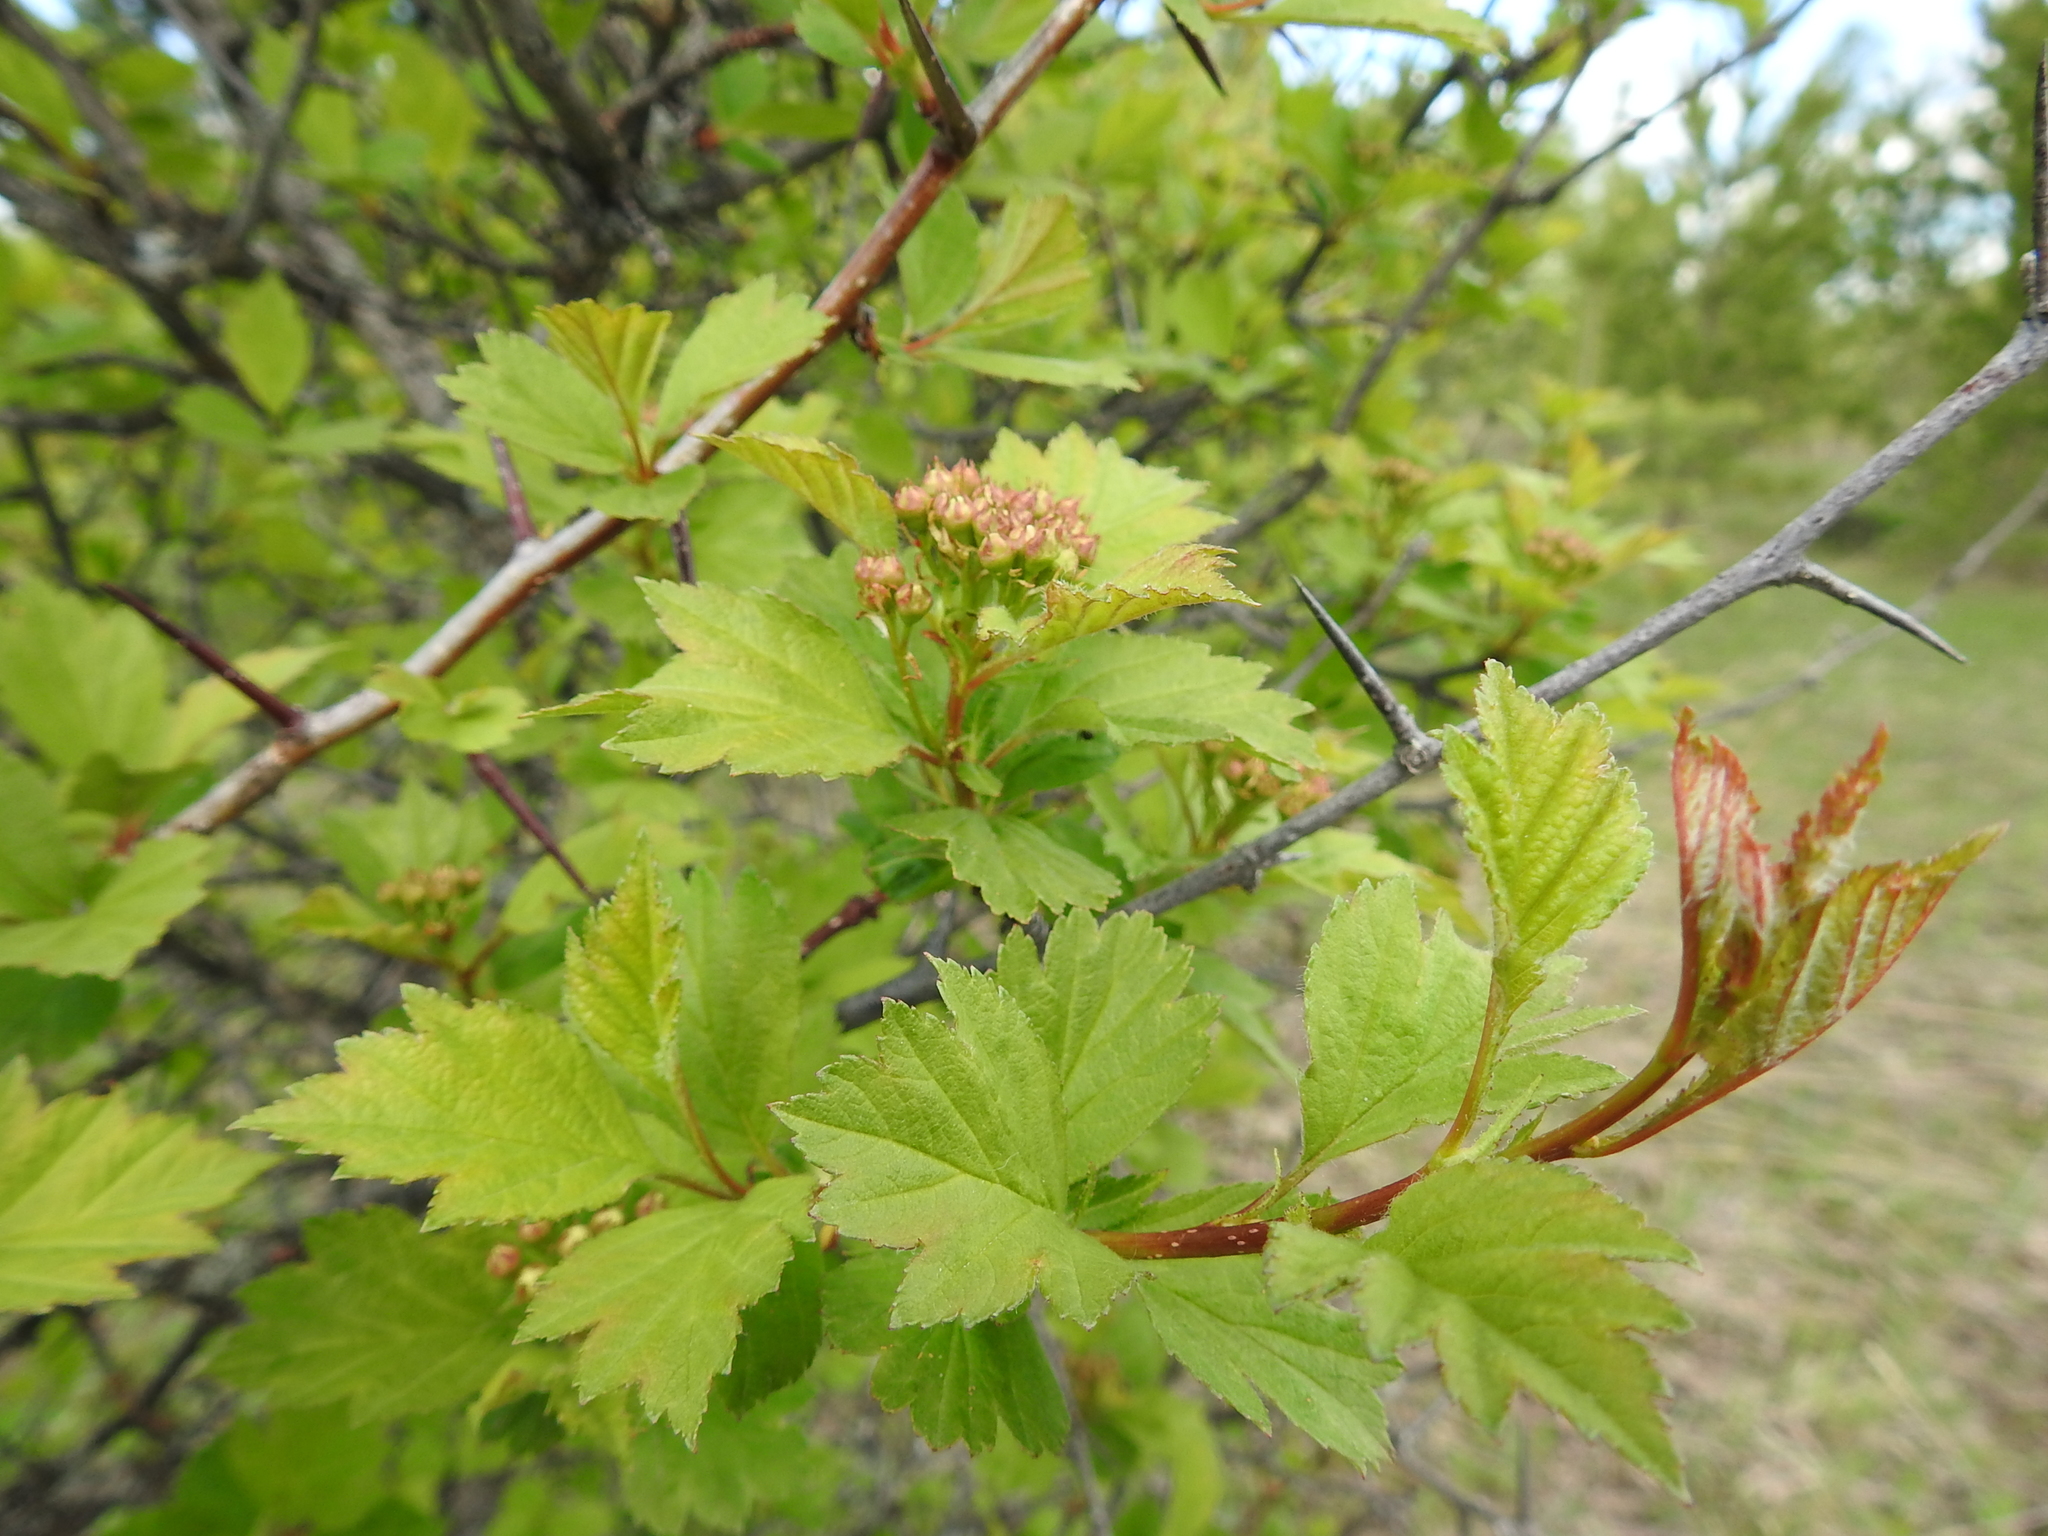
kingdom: Plantae
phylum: Tracheophyta
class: Magnoliopsida
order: Rosales
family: Rosaceae
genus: Crataegus
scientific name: Crataegus sanguinea
